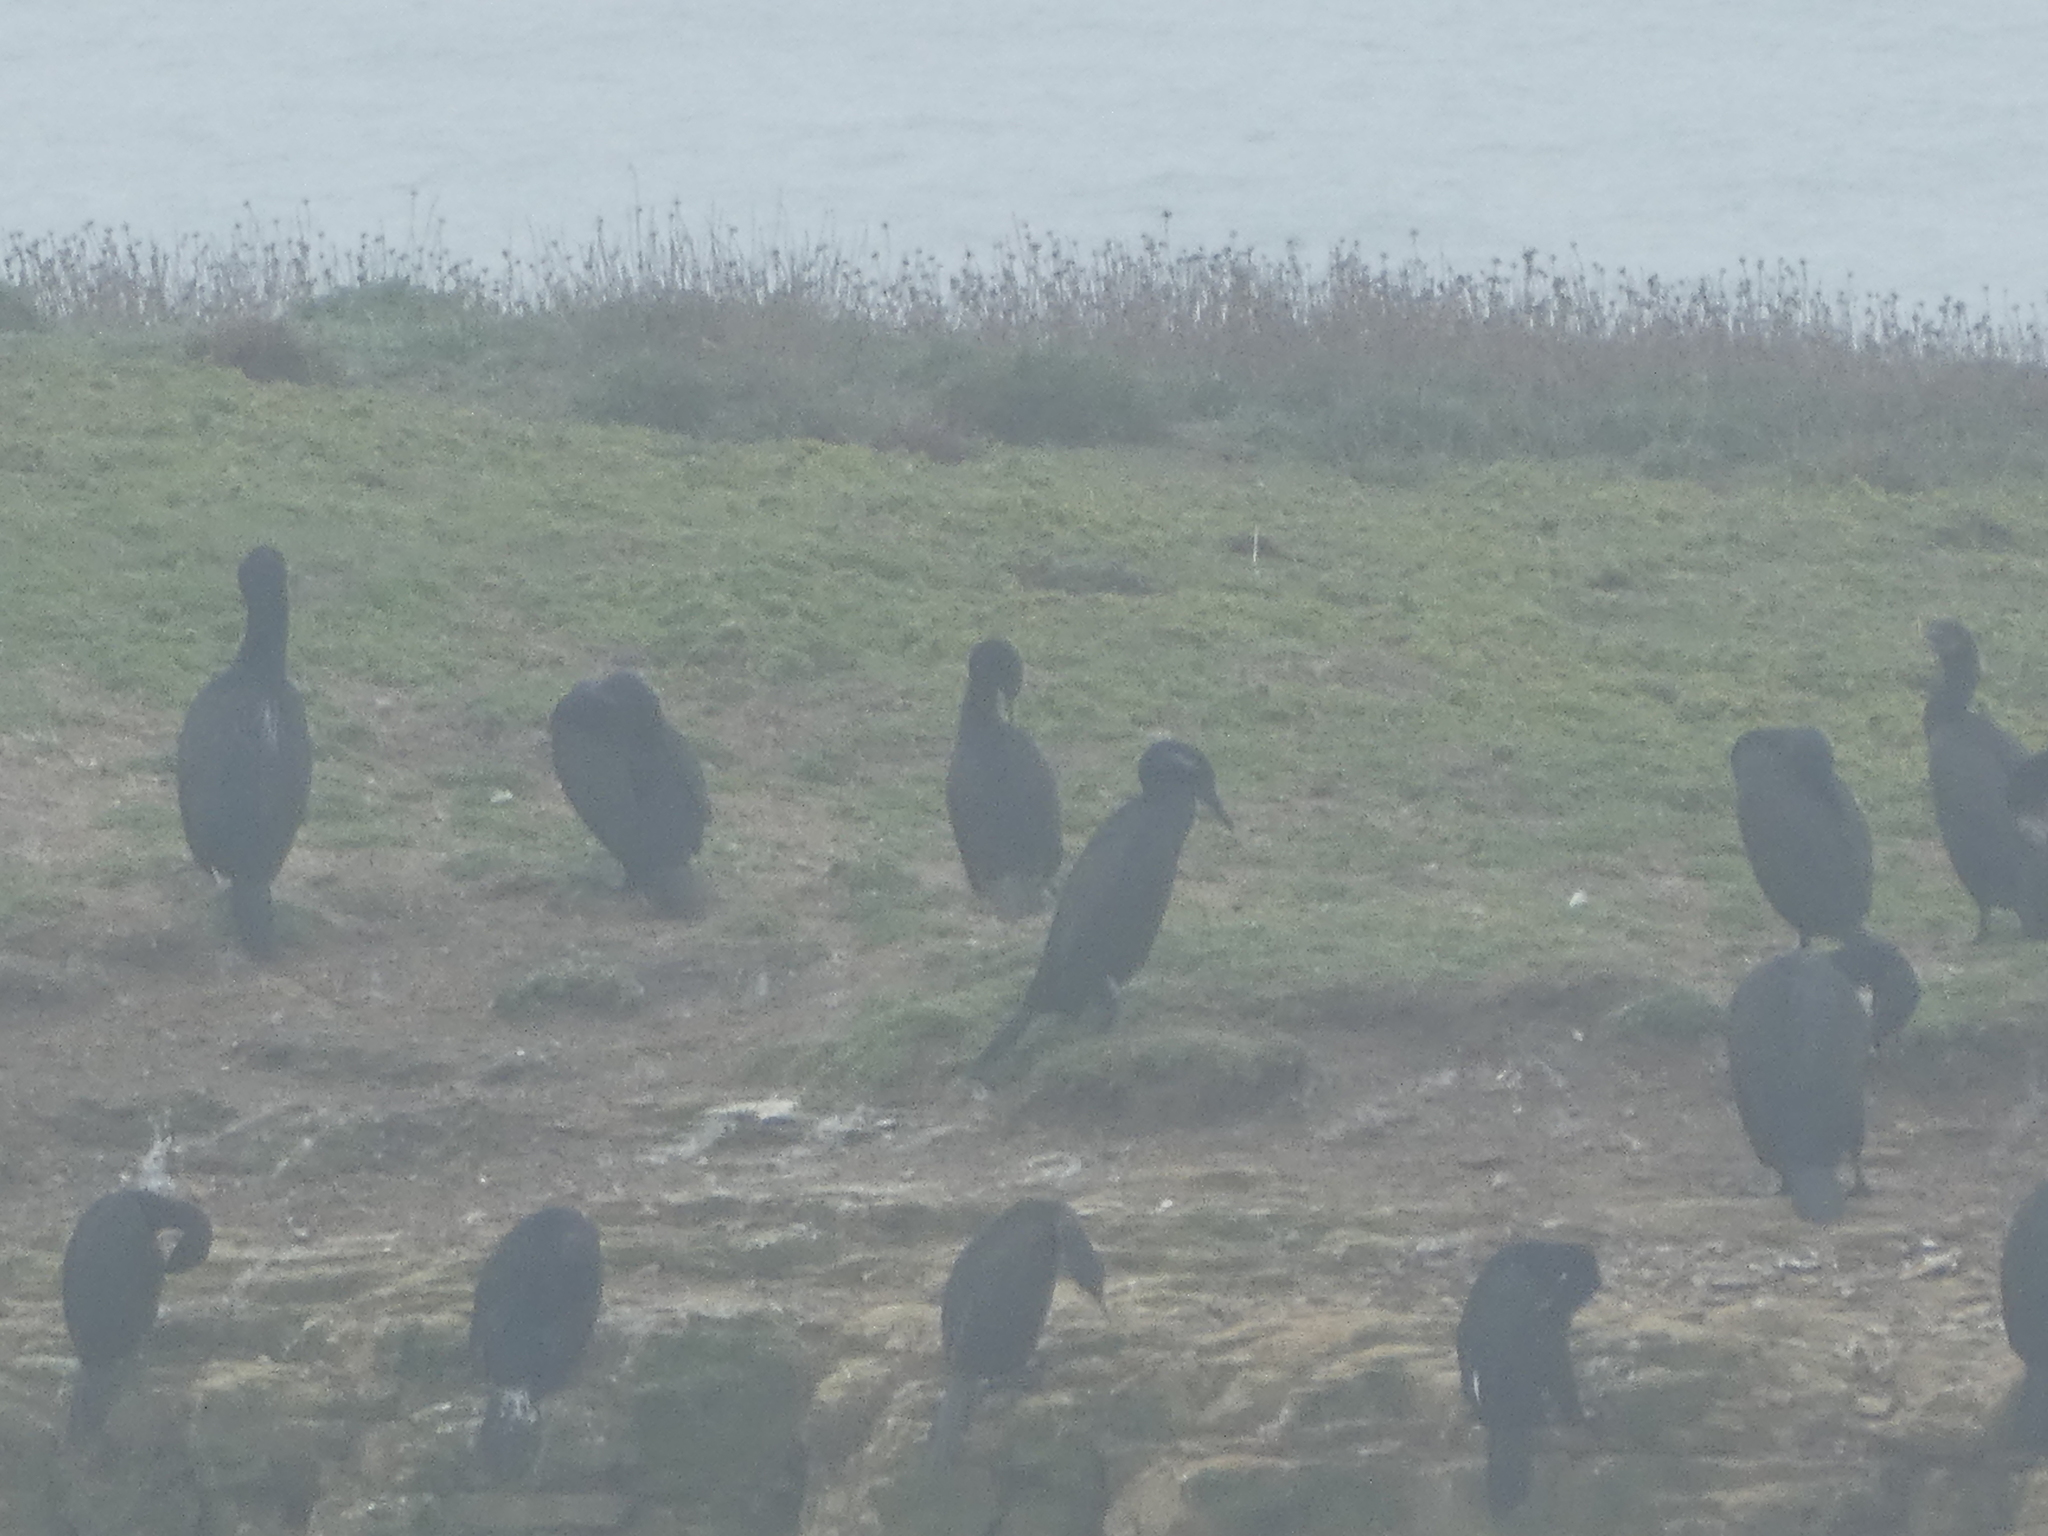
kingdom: Animalia
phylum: Chordata
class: Aves
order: Suliformes
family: Phalacrocoracidae
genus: Urile
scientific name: Urile penicillatus
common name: Brandt's cormorant
